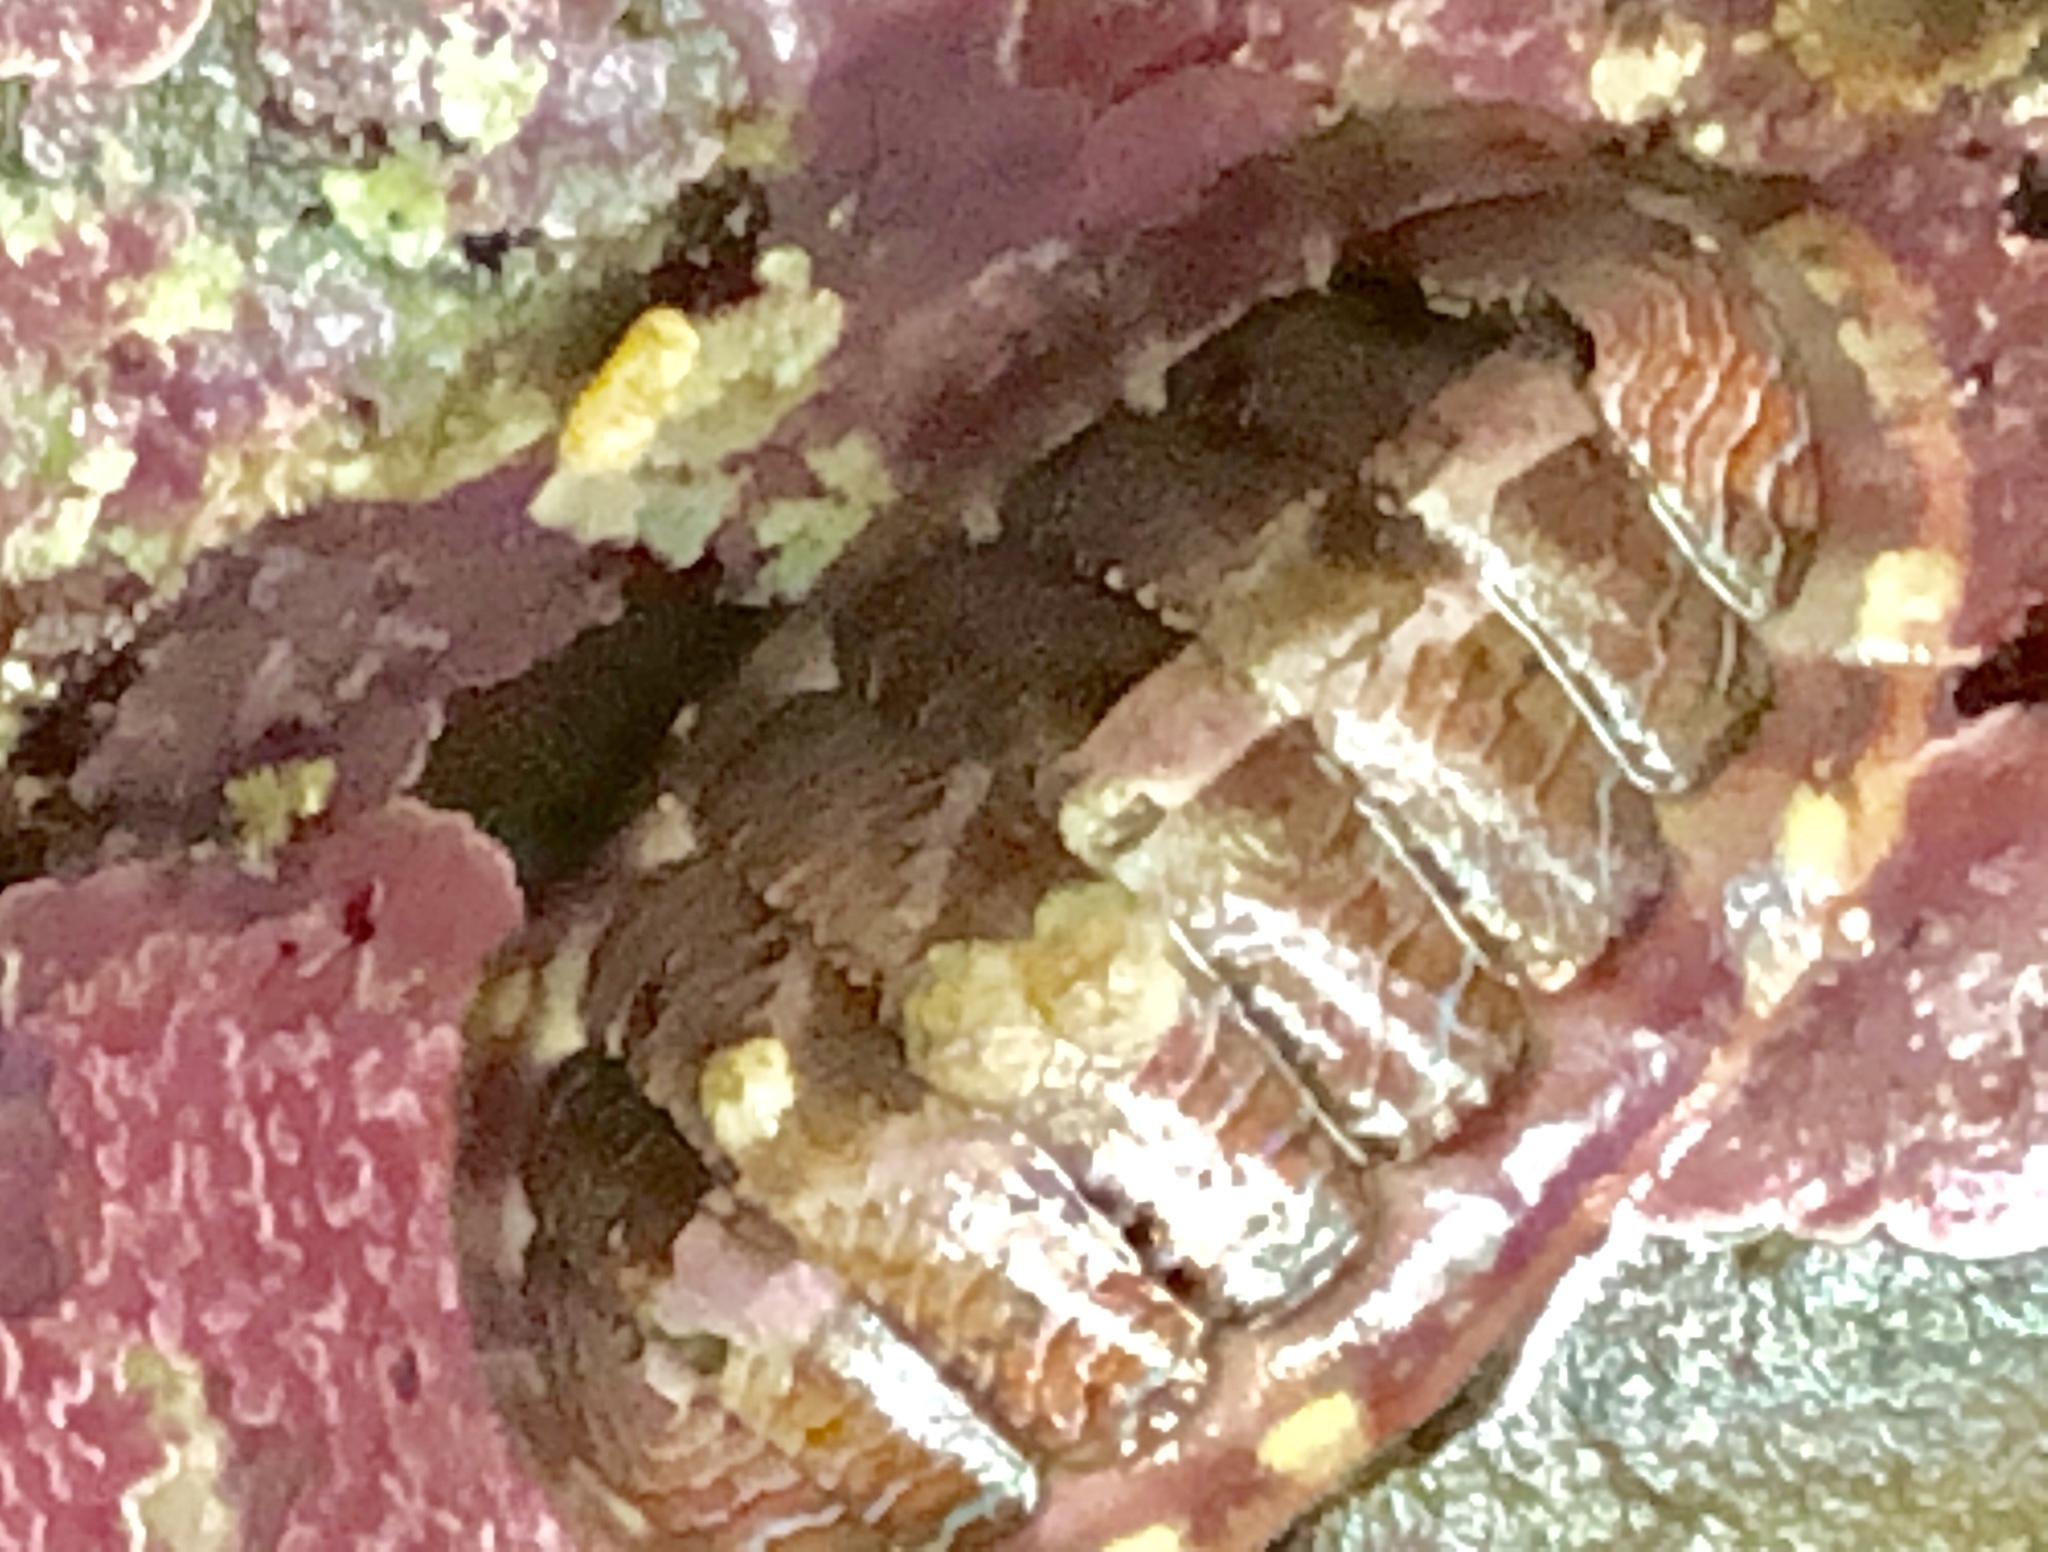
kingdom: Animalia
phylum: Mollusca
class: Polyplacophora
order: Chitonida
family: Tonicellidae
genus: Tonicella
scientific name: Tonicella lineata
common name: Lined chiton
